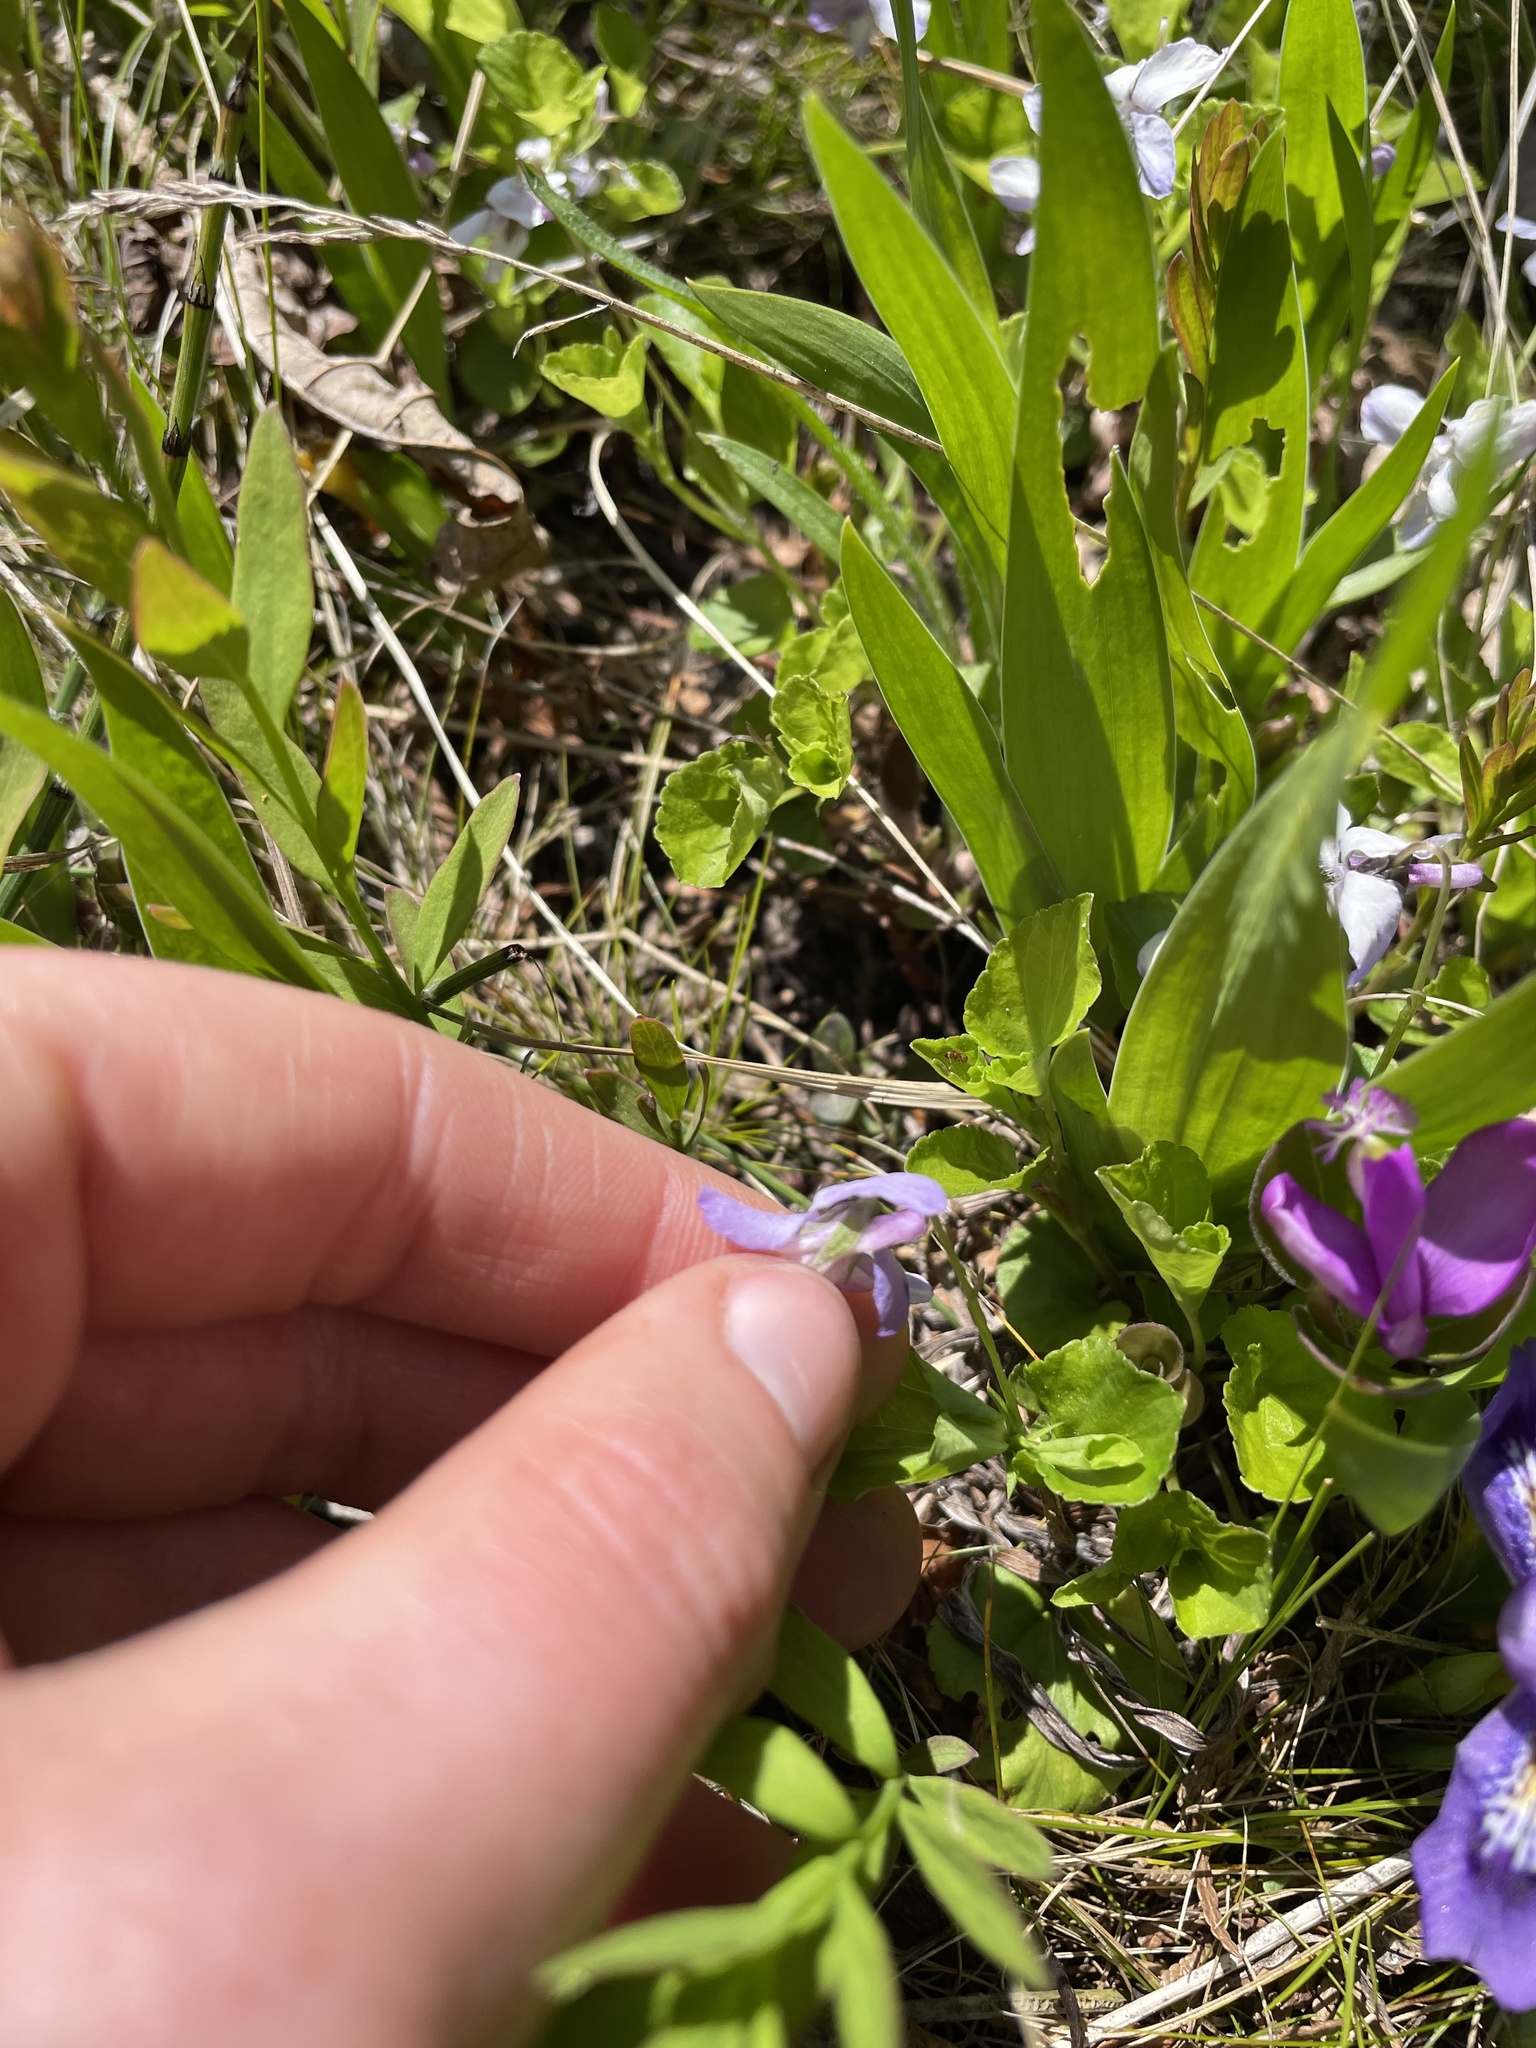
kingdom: Plantae
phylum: Tracheophyta
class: Magnoliopsida
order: Malpighiales
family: Violaceae
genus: Viola
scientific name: Viola labradorica
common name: Labrador violet
